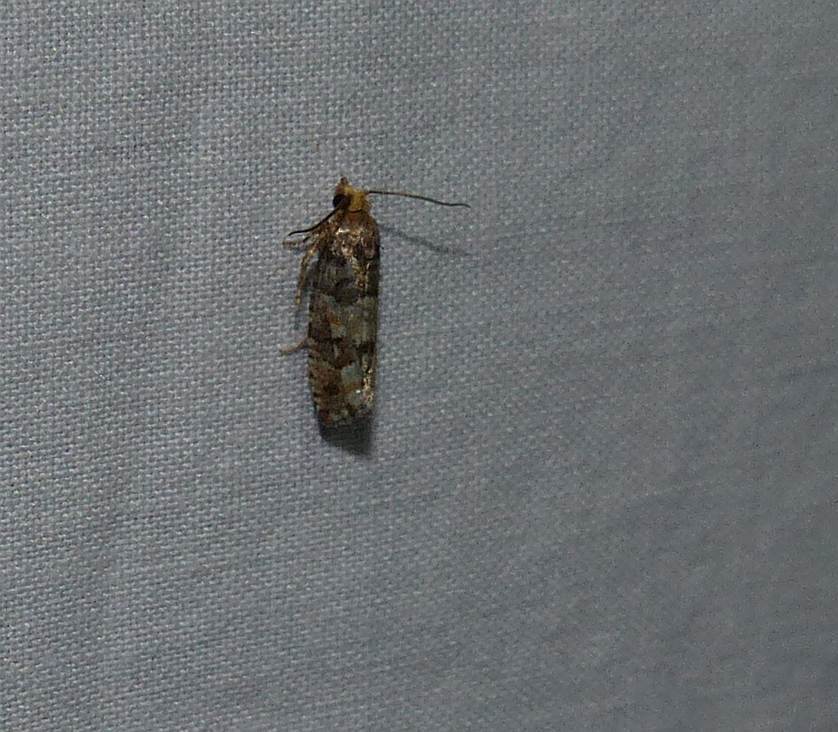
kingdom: Animalia
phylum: Arthropoda
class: Insecta
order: Lepidoptera
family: Tortricidae
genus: Eucopina
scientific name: Eucopina tocullionana
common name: White pinecone borer moth
